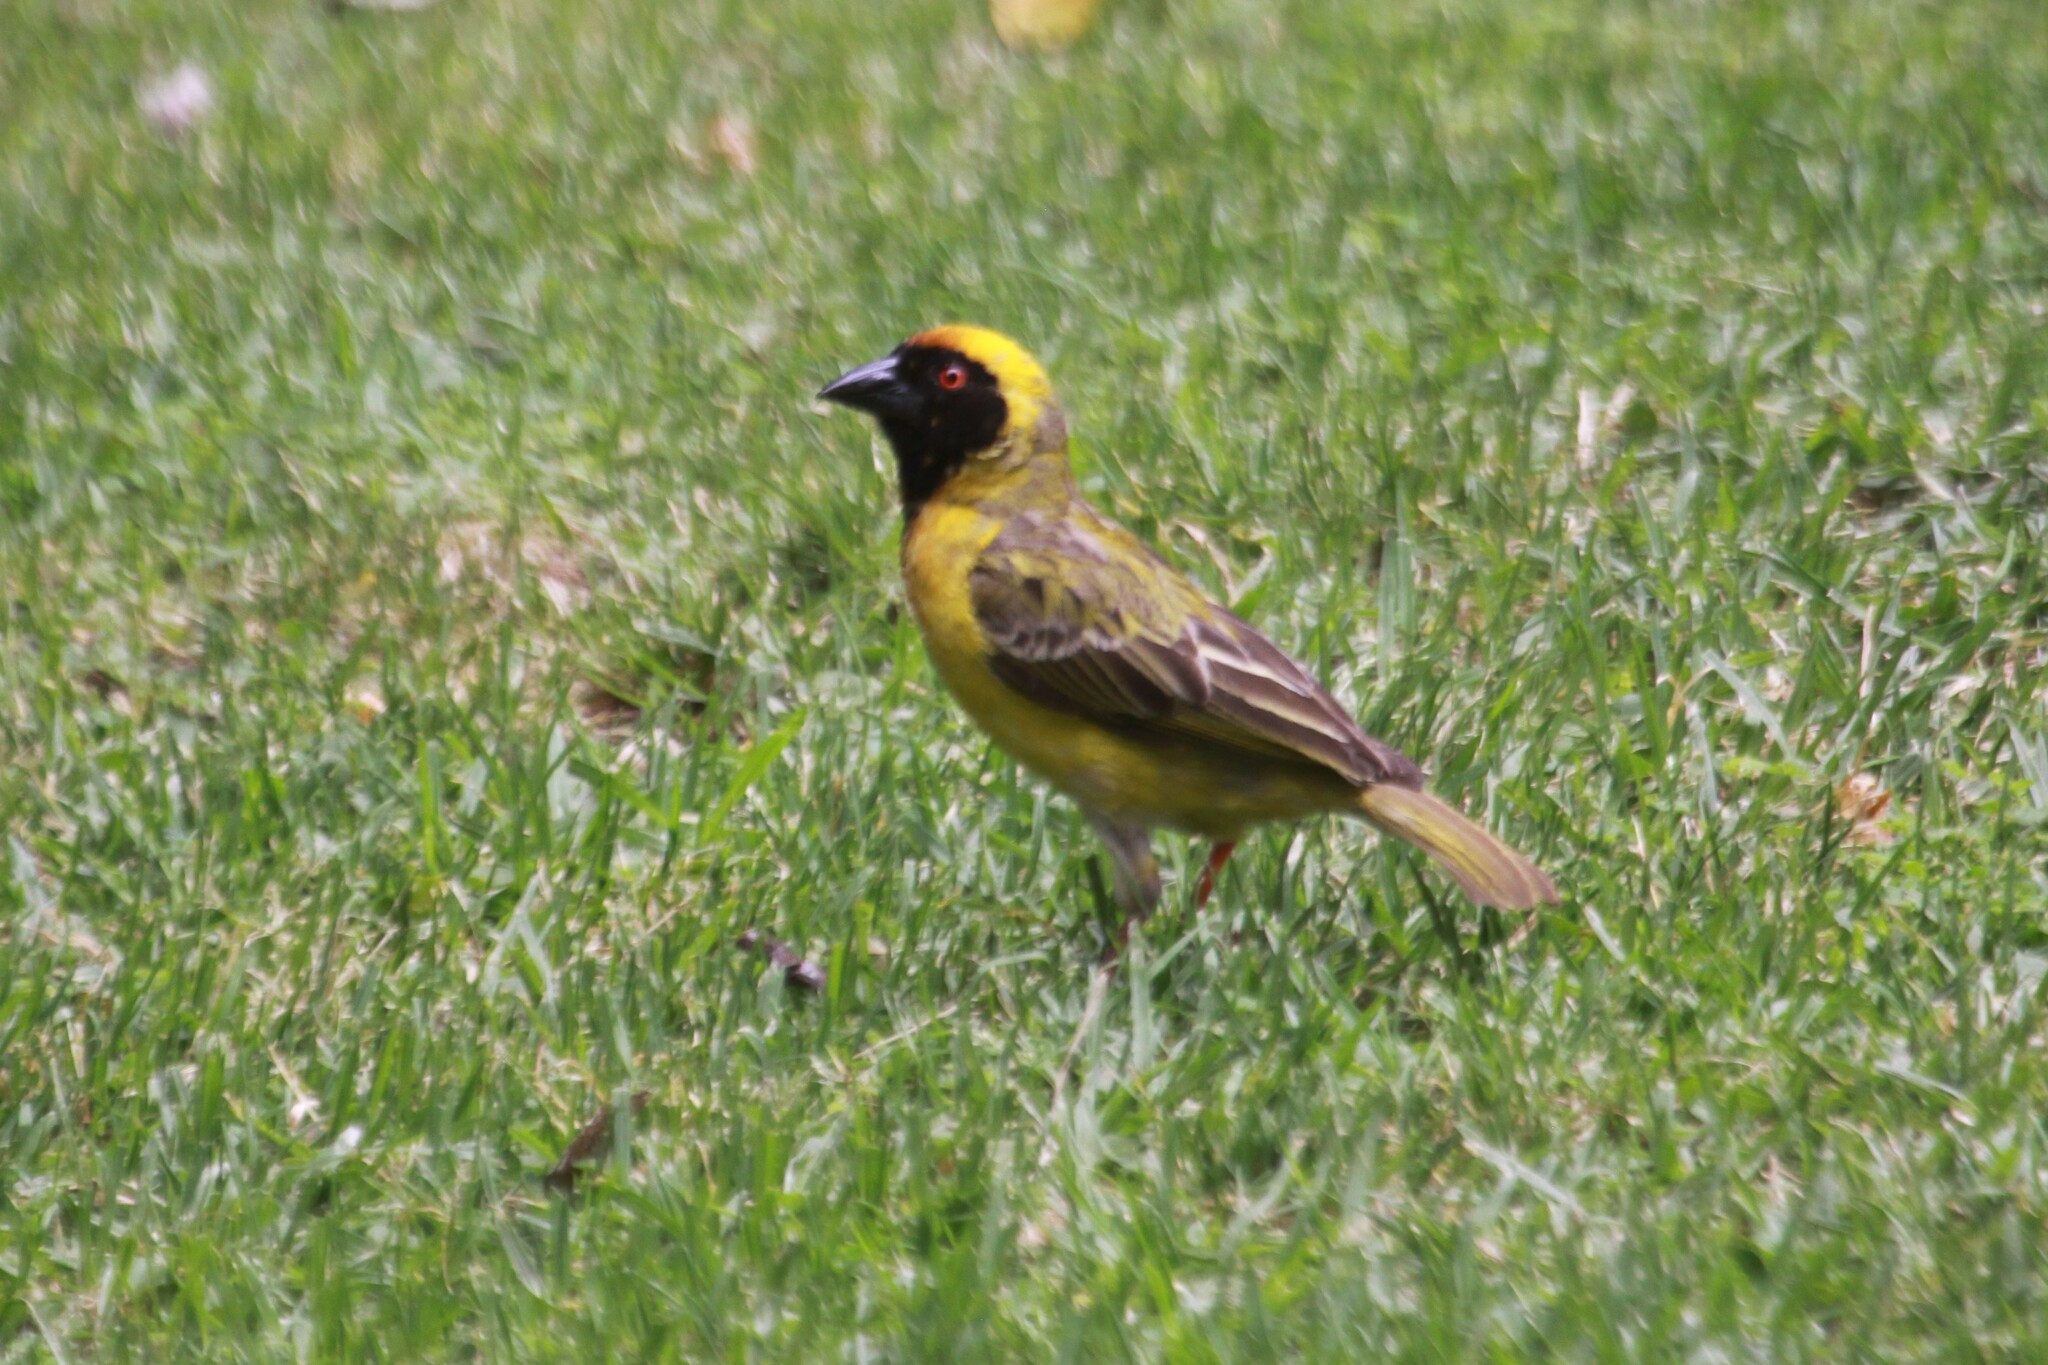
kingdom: Animalia
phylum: Chordata
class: Aves
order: Passeriformes
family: Ploceidae
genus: Ploceus
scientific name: Ploceus velatus
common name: Southern masked weaver
